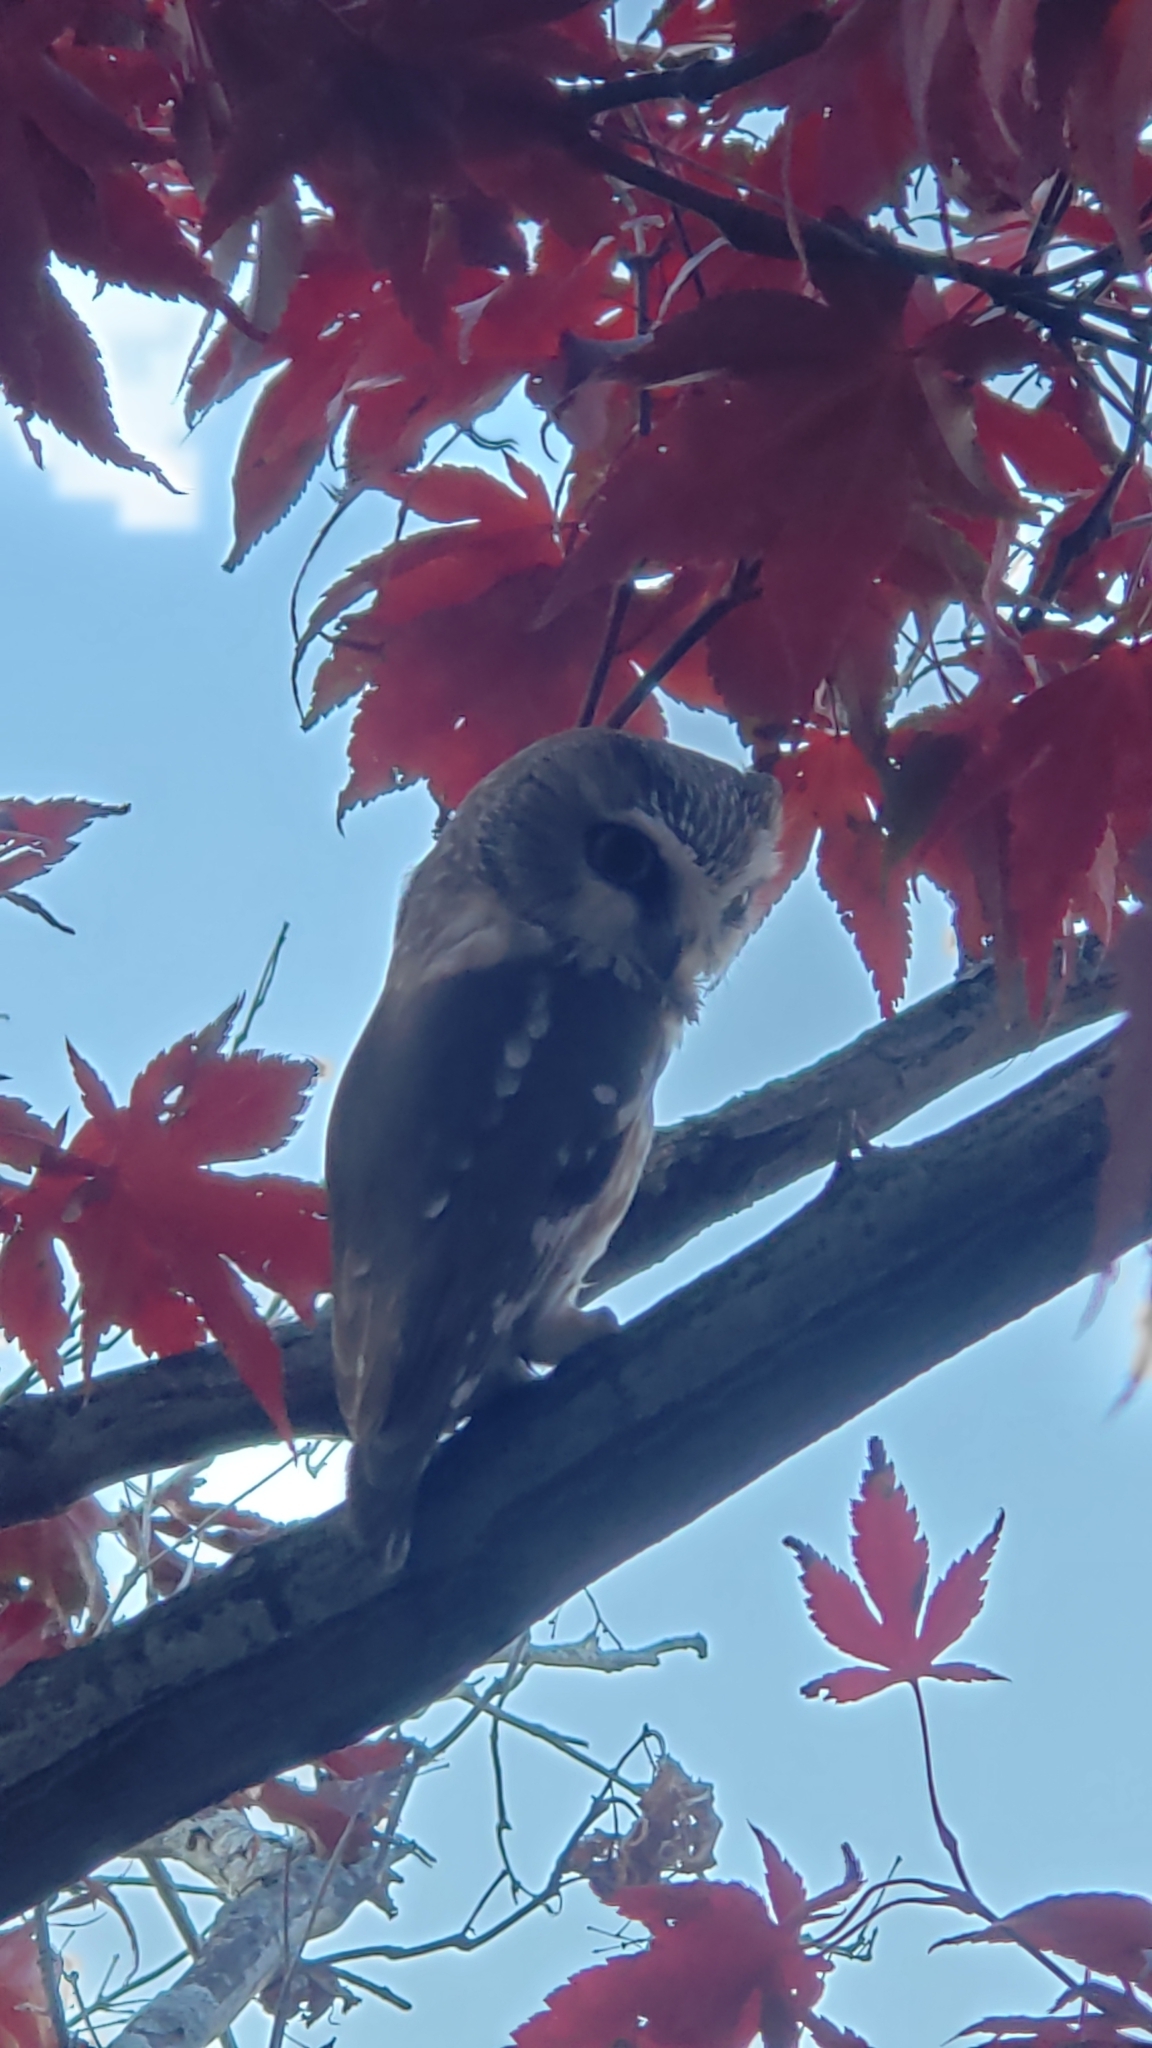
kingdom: Animalia
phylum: Chordata
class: Aves
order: Strigiformes
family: Strigidae
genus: Aegolius
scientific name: Aegolius acadicus
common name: Northern saw-whet owl
